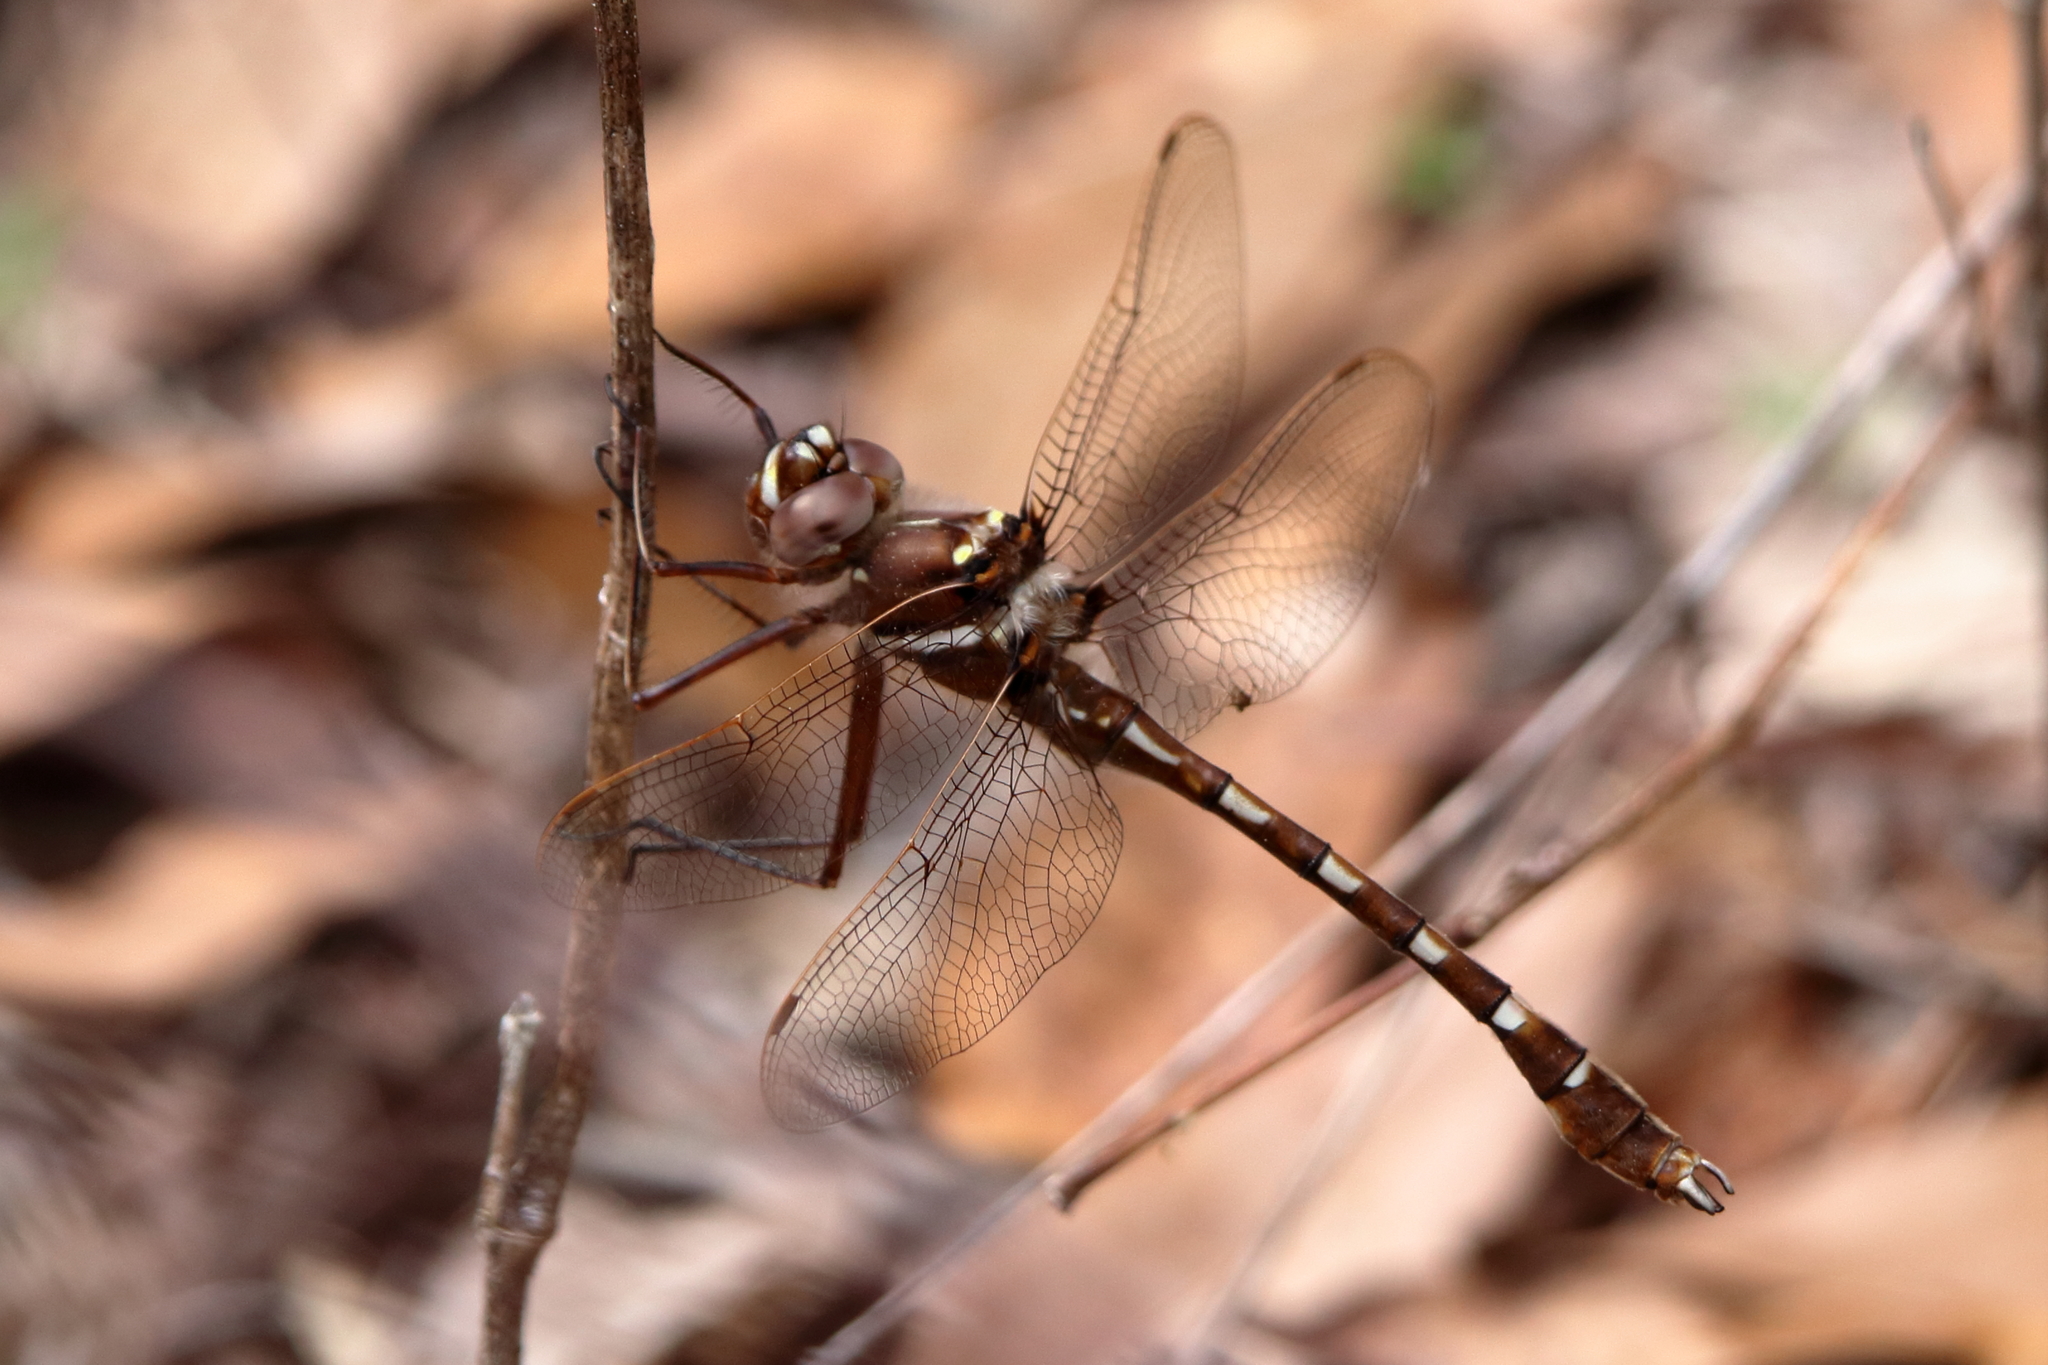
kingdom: Animalia
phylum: Arthropoda
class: Insecta
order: Odonata
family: Macromiidae
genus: Didymops
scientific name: Didymops transversa
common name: Stream cruiser
